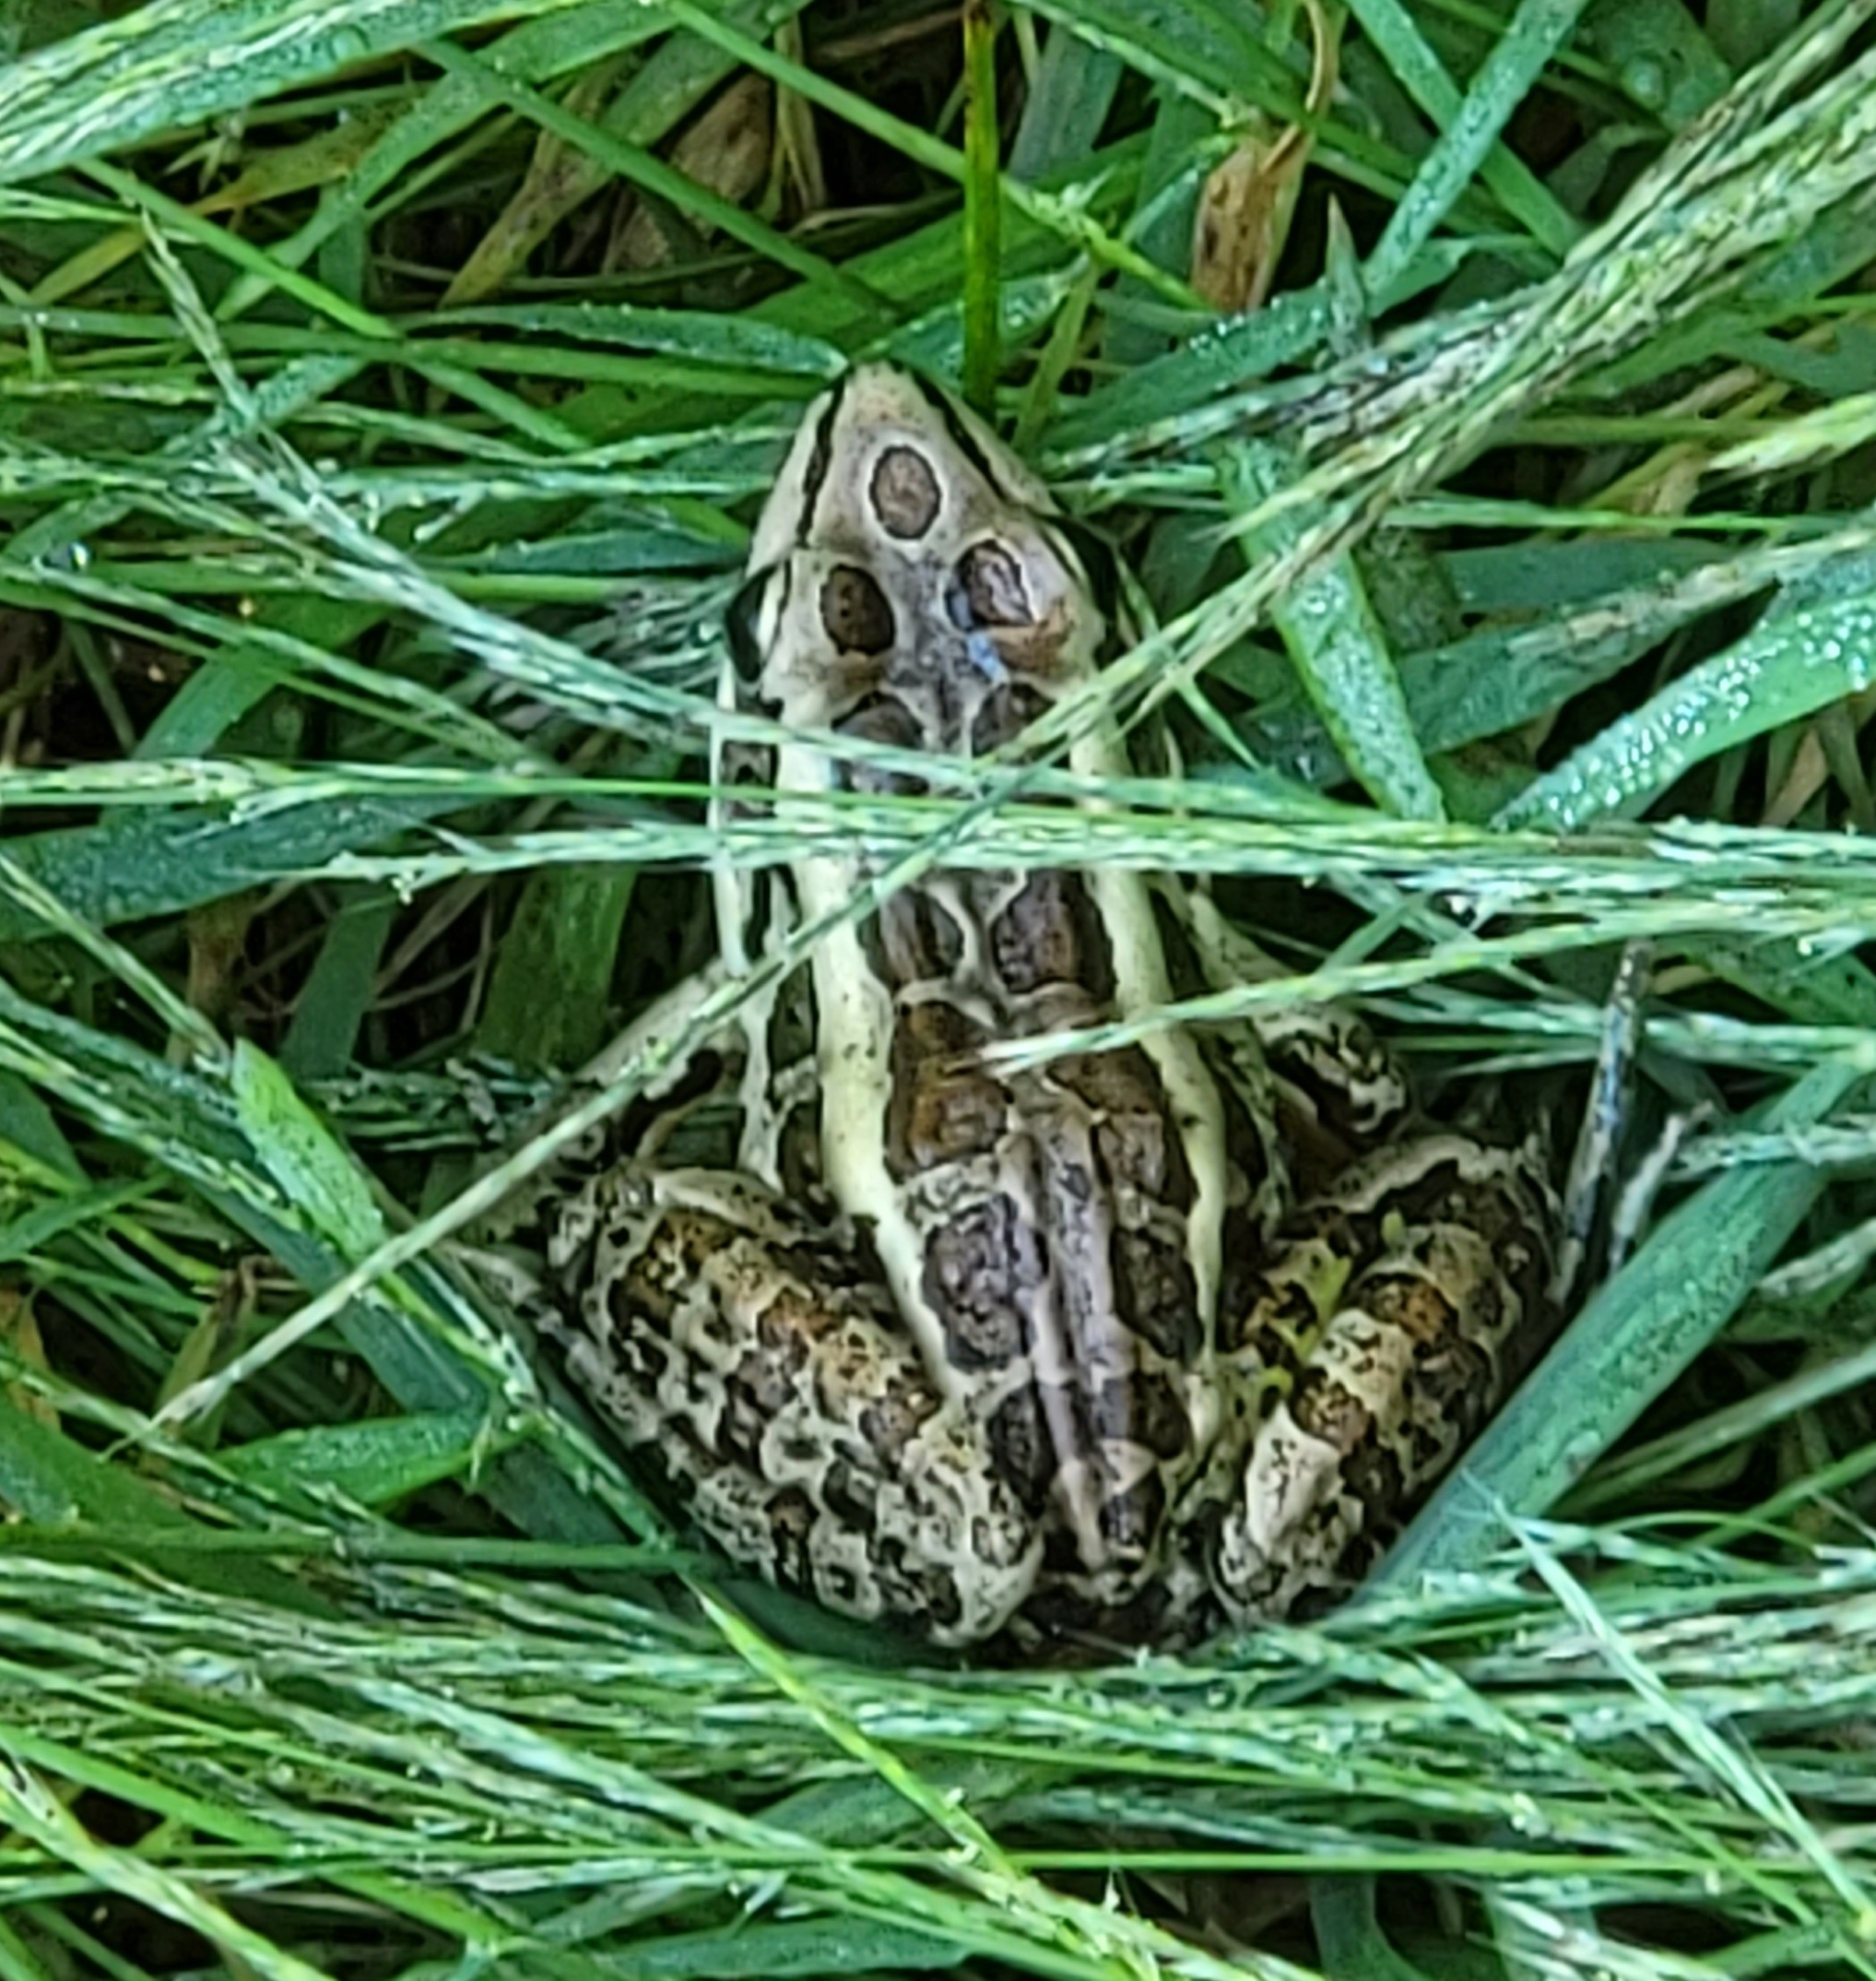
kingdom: Animalia
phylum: Chordata
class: Amphibia
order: Anura
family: Ranidae
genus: Lithobates
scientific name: Lithobates palustris
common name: Pickerel frog
